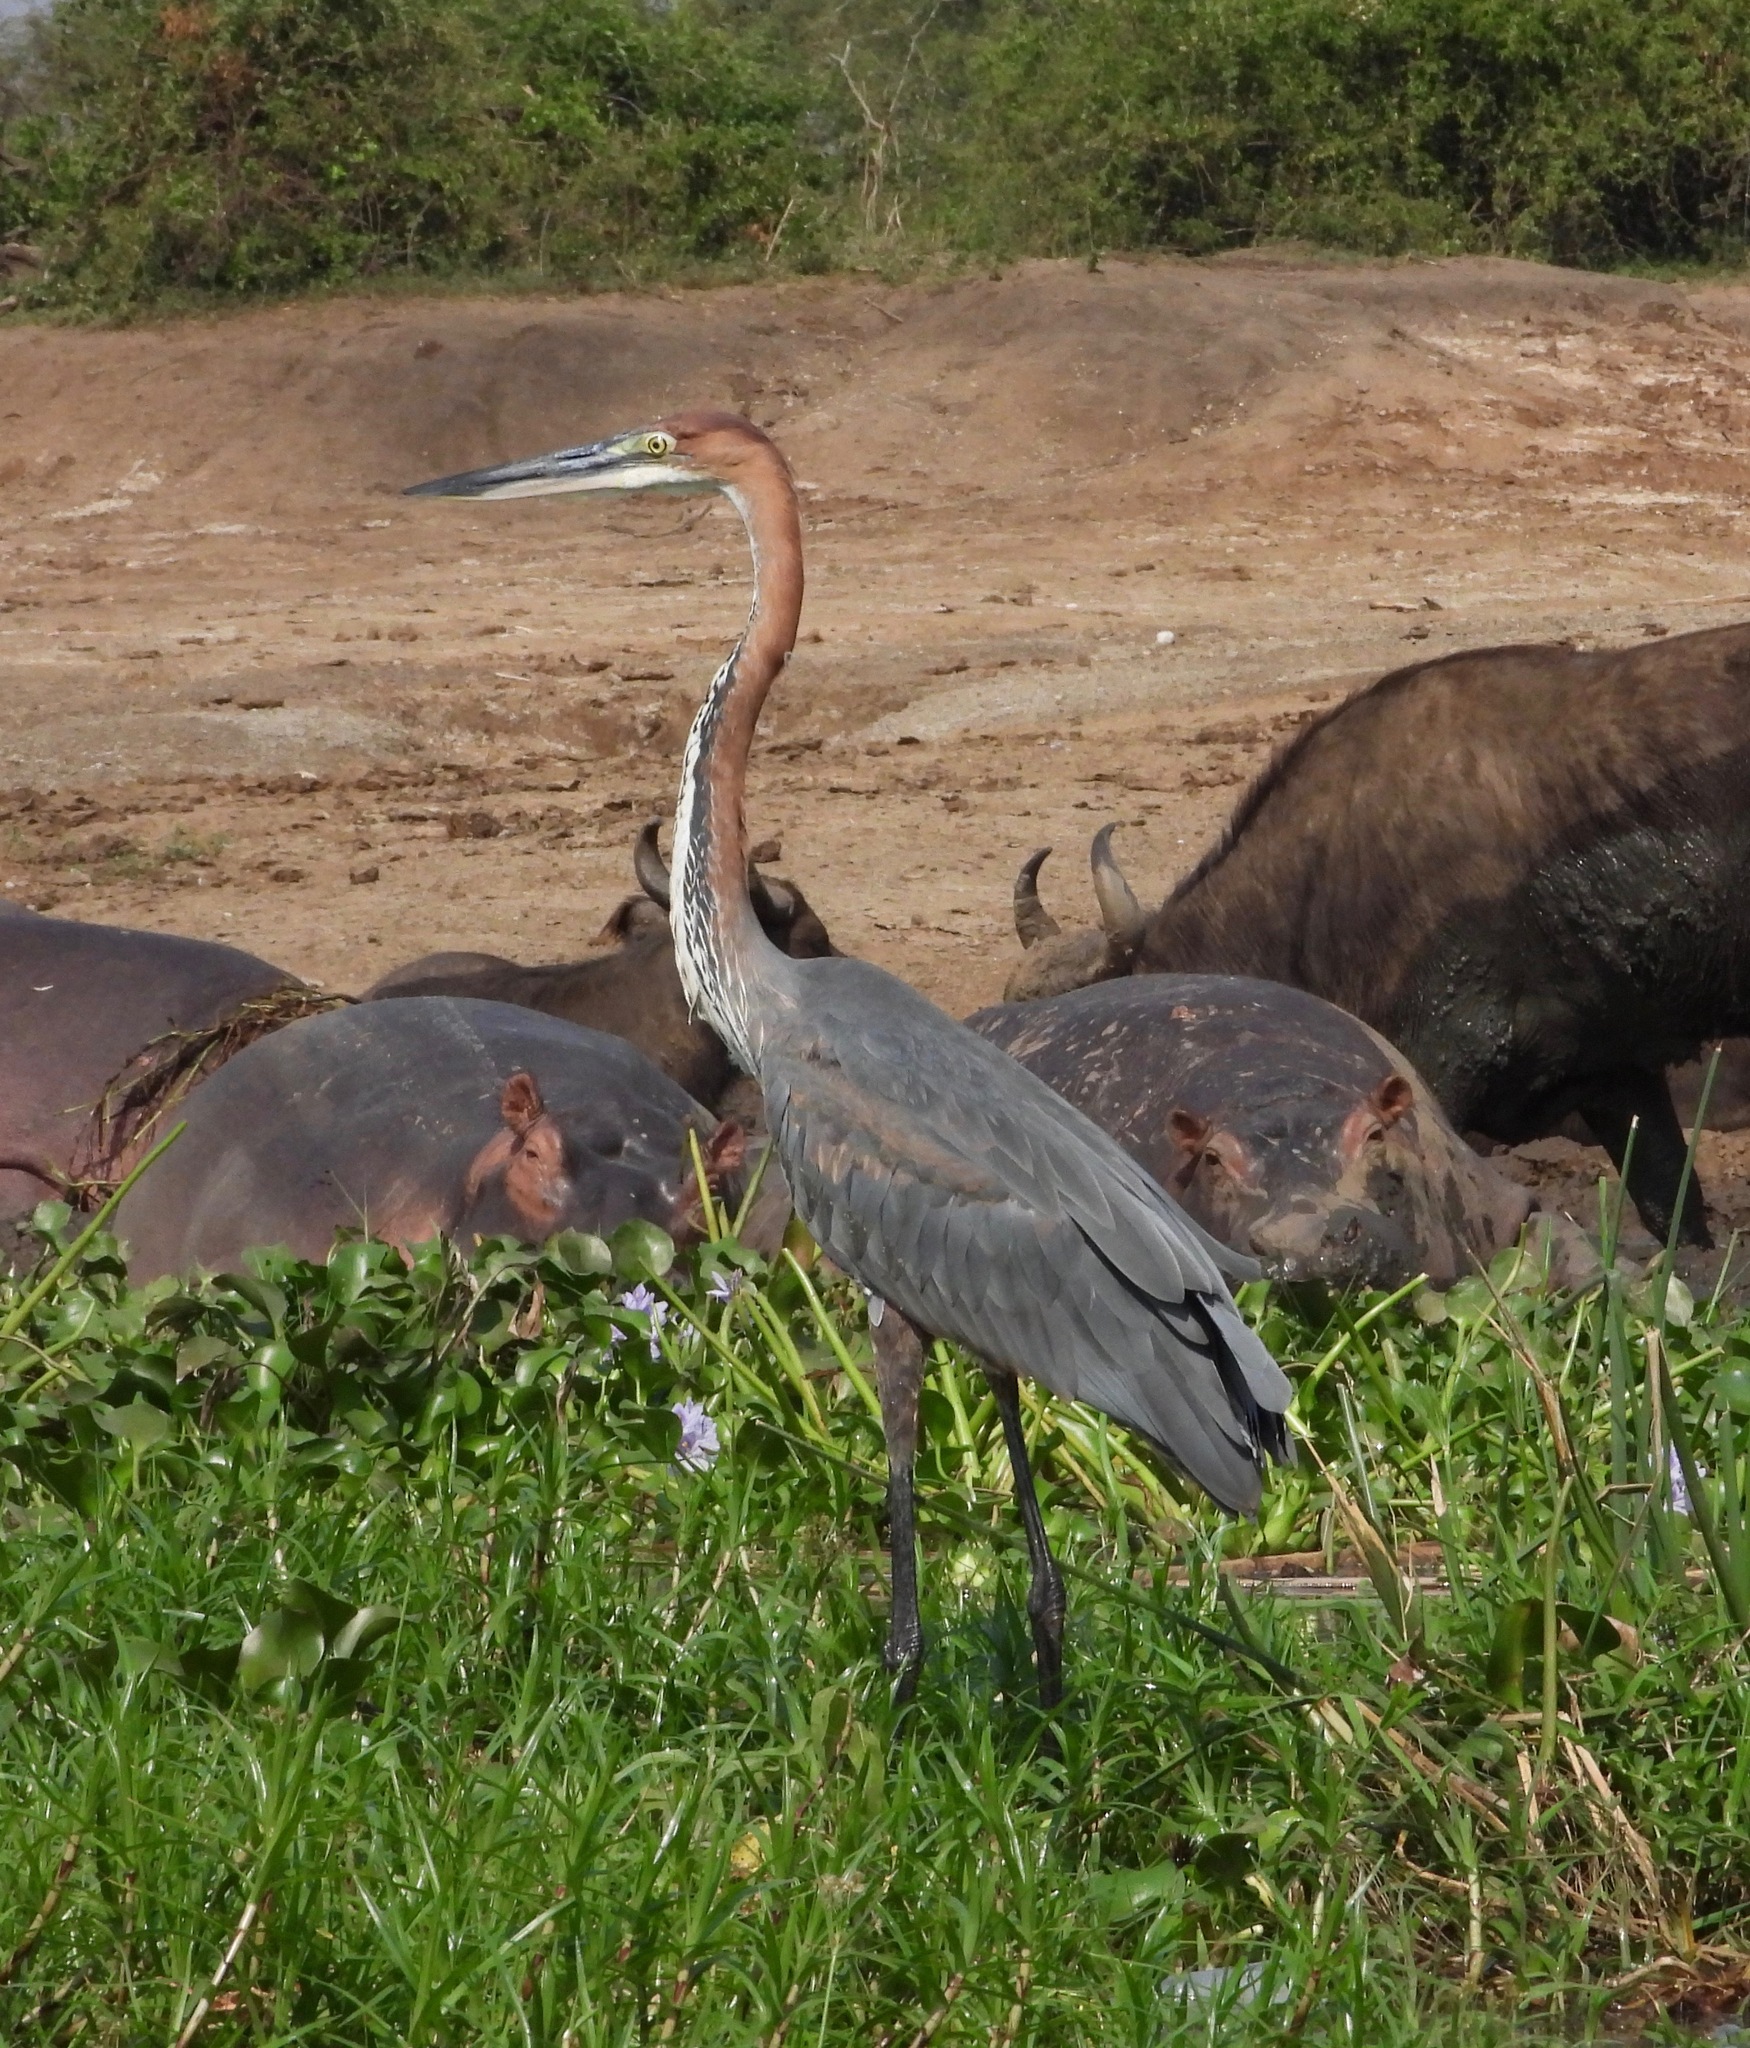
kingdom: Animalia
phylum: Chordata
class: Aves
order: Pelecaniformes
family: Ardeidae
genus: Ardea
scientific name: Ardea goliath
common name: Goliath heron
